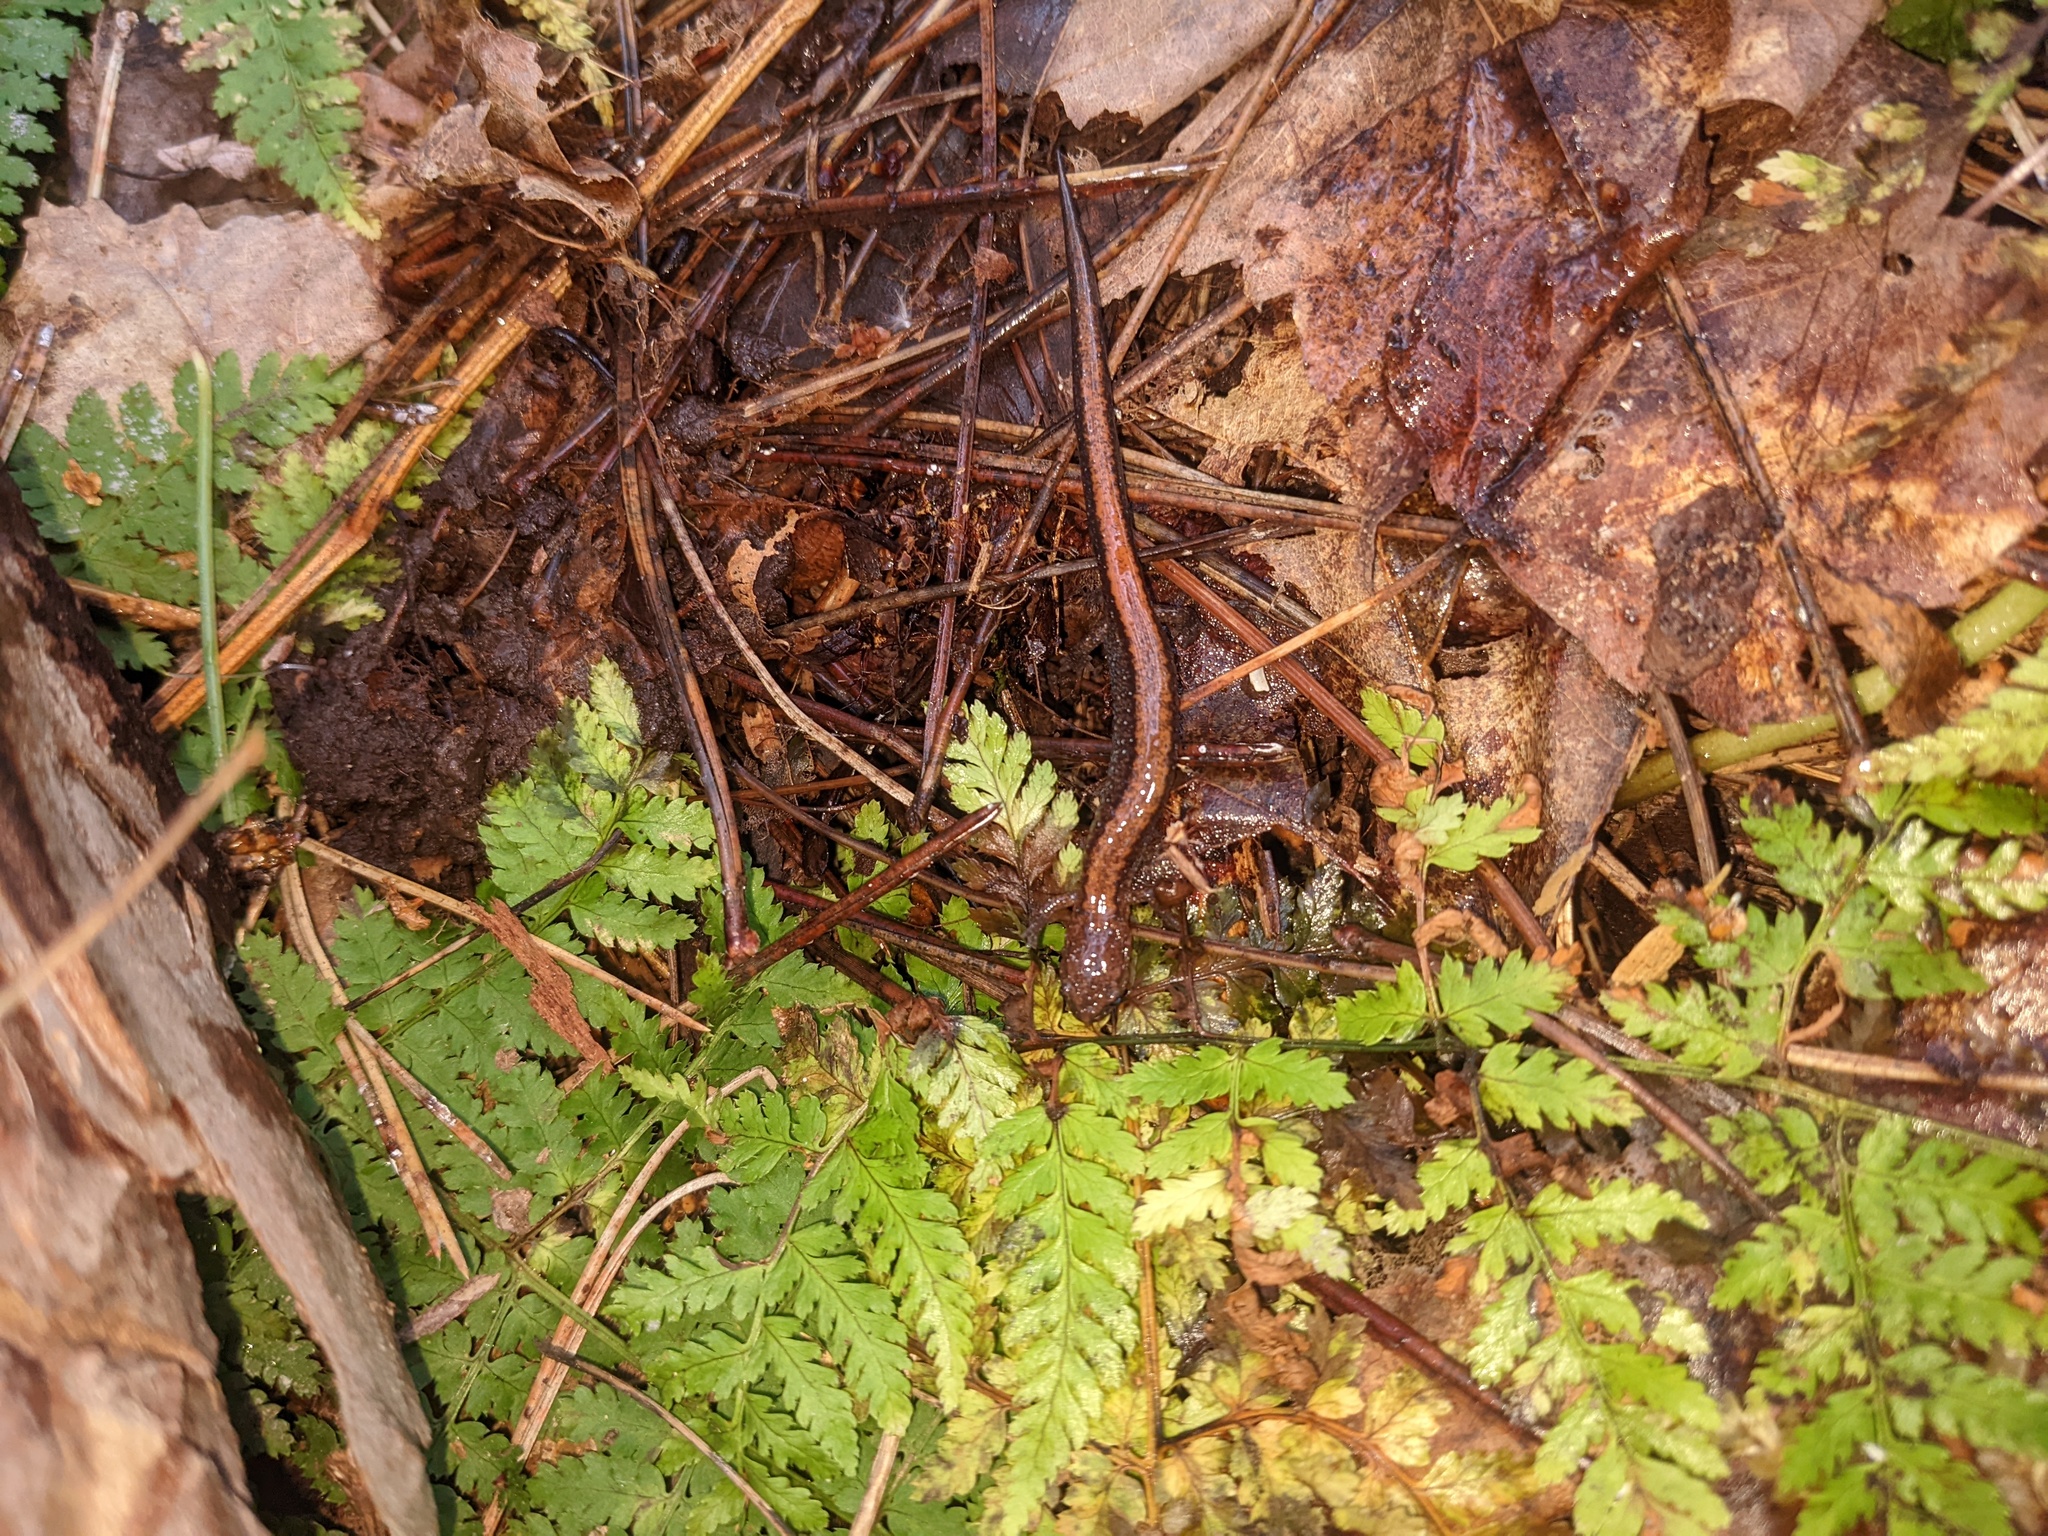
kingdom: Animalia
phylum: Chordata
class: Amphibia
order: Caudata
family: Plethodontidae
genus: Plethodon
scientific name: Plethodon cinereus
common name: Redback salamander
